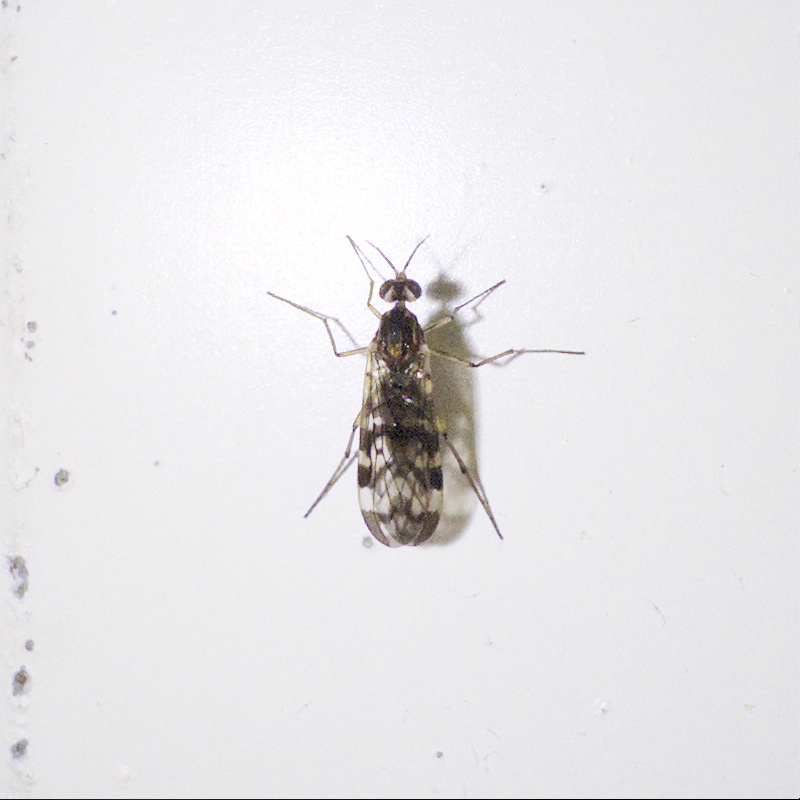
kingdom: Animalia
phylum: Arthropoda
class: Insecta
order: Diptera
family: Anisopodidae
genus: Sylvicola
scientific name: Sylvicola dubius
